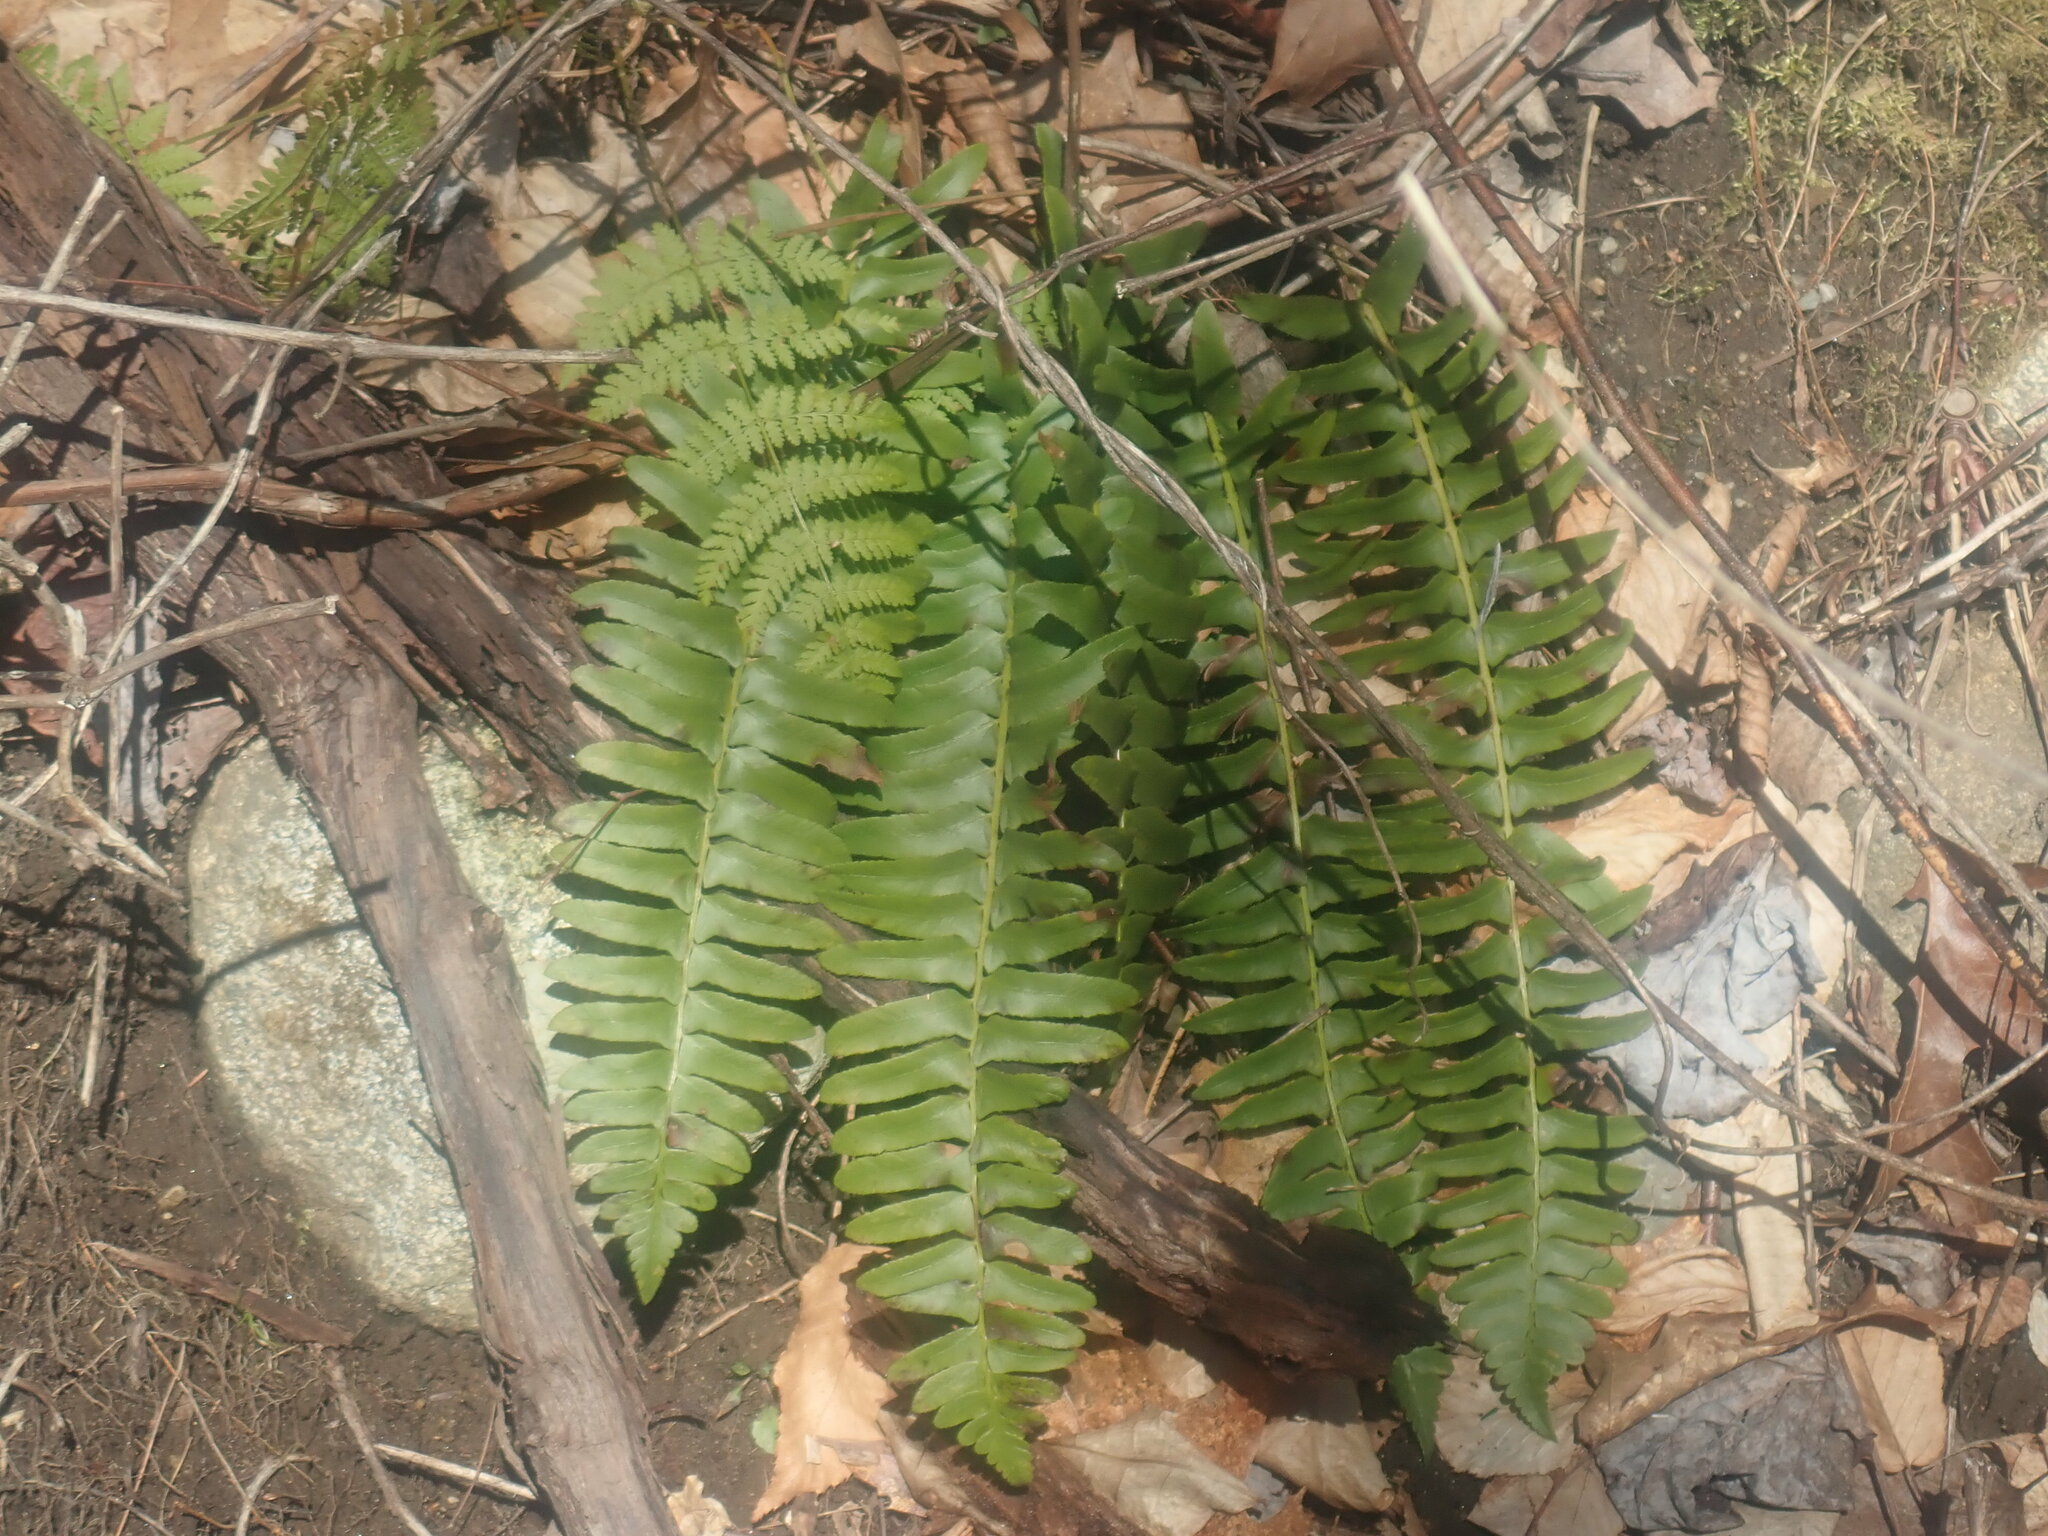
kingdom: Plantae
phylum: Tracheophyta
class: Polypodiopsida
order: Polypodiales
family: Dryopteridaceae
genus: Polystichum
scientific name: Polystichum acrostichoides
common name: Christmas fern
